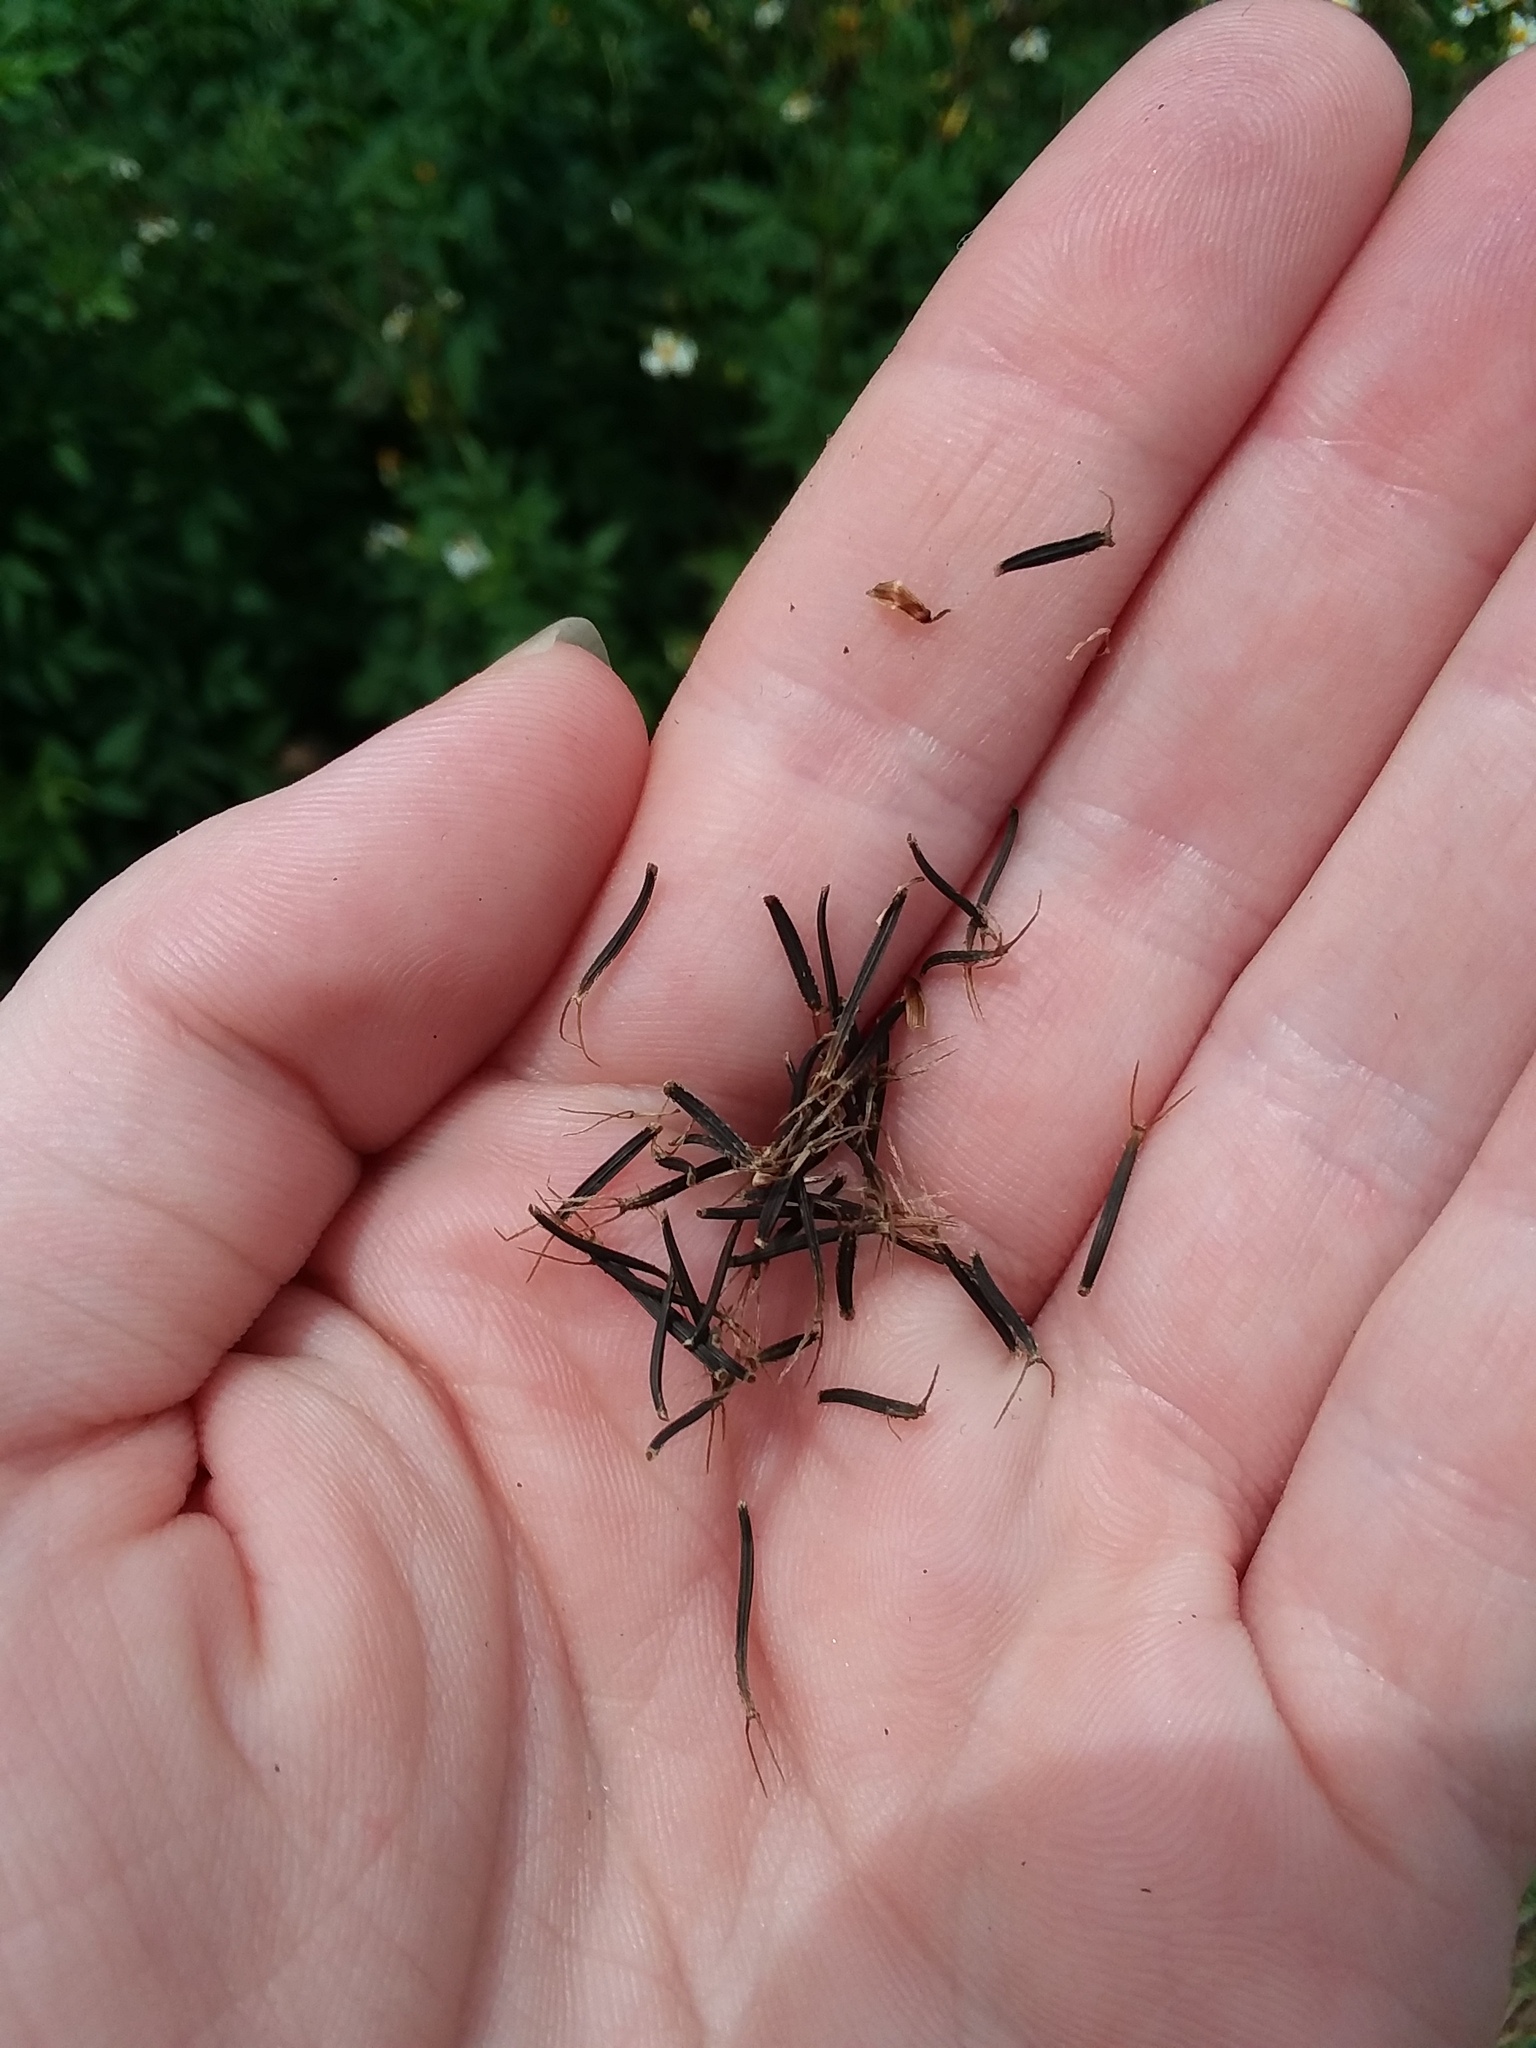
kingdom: Plantae
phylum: Tracheophyta
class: Magnoliopsida
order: Asterales
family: Asteraceae
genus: Bidens
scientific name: Bidens alba
